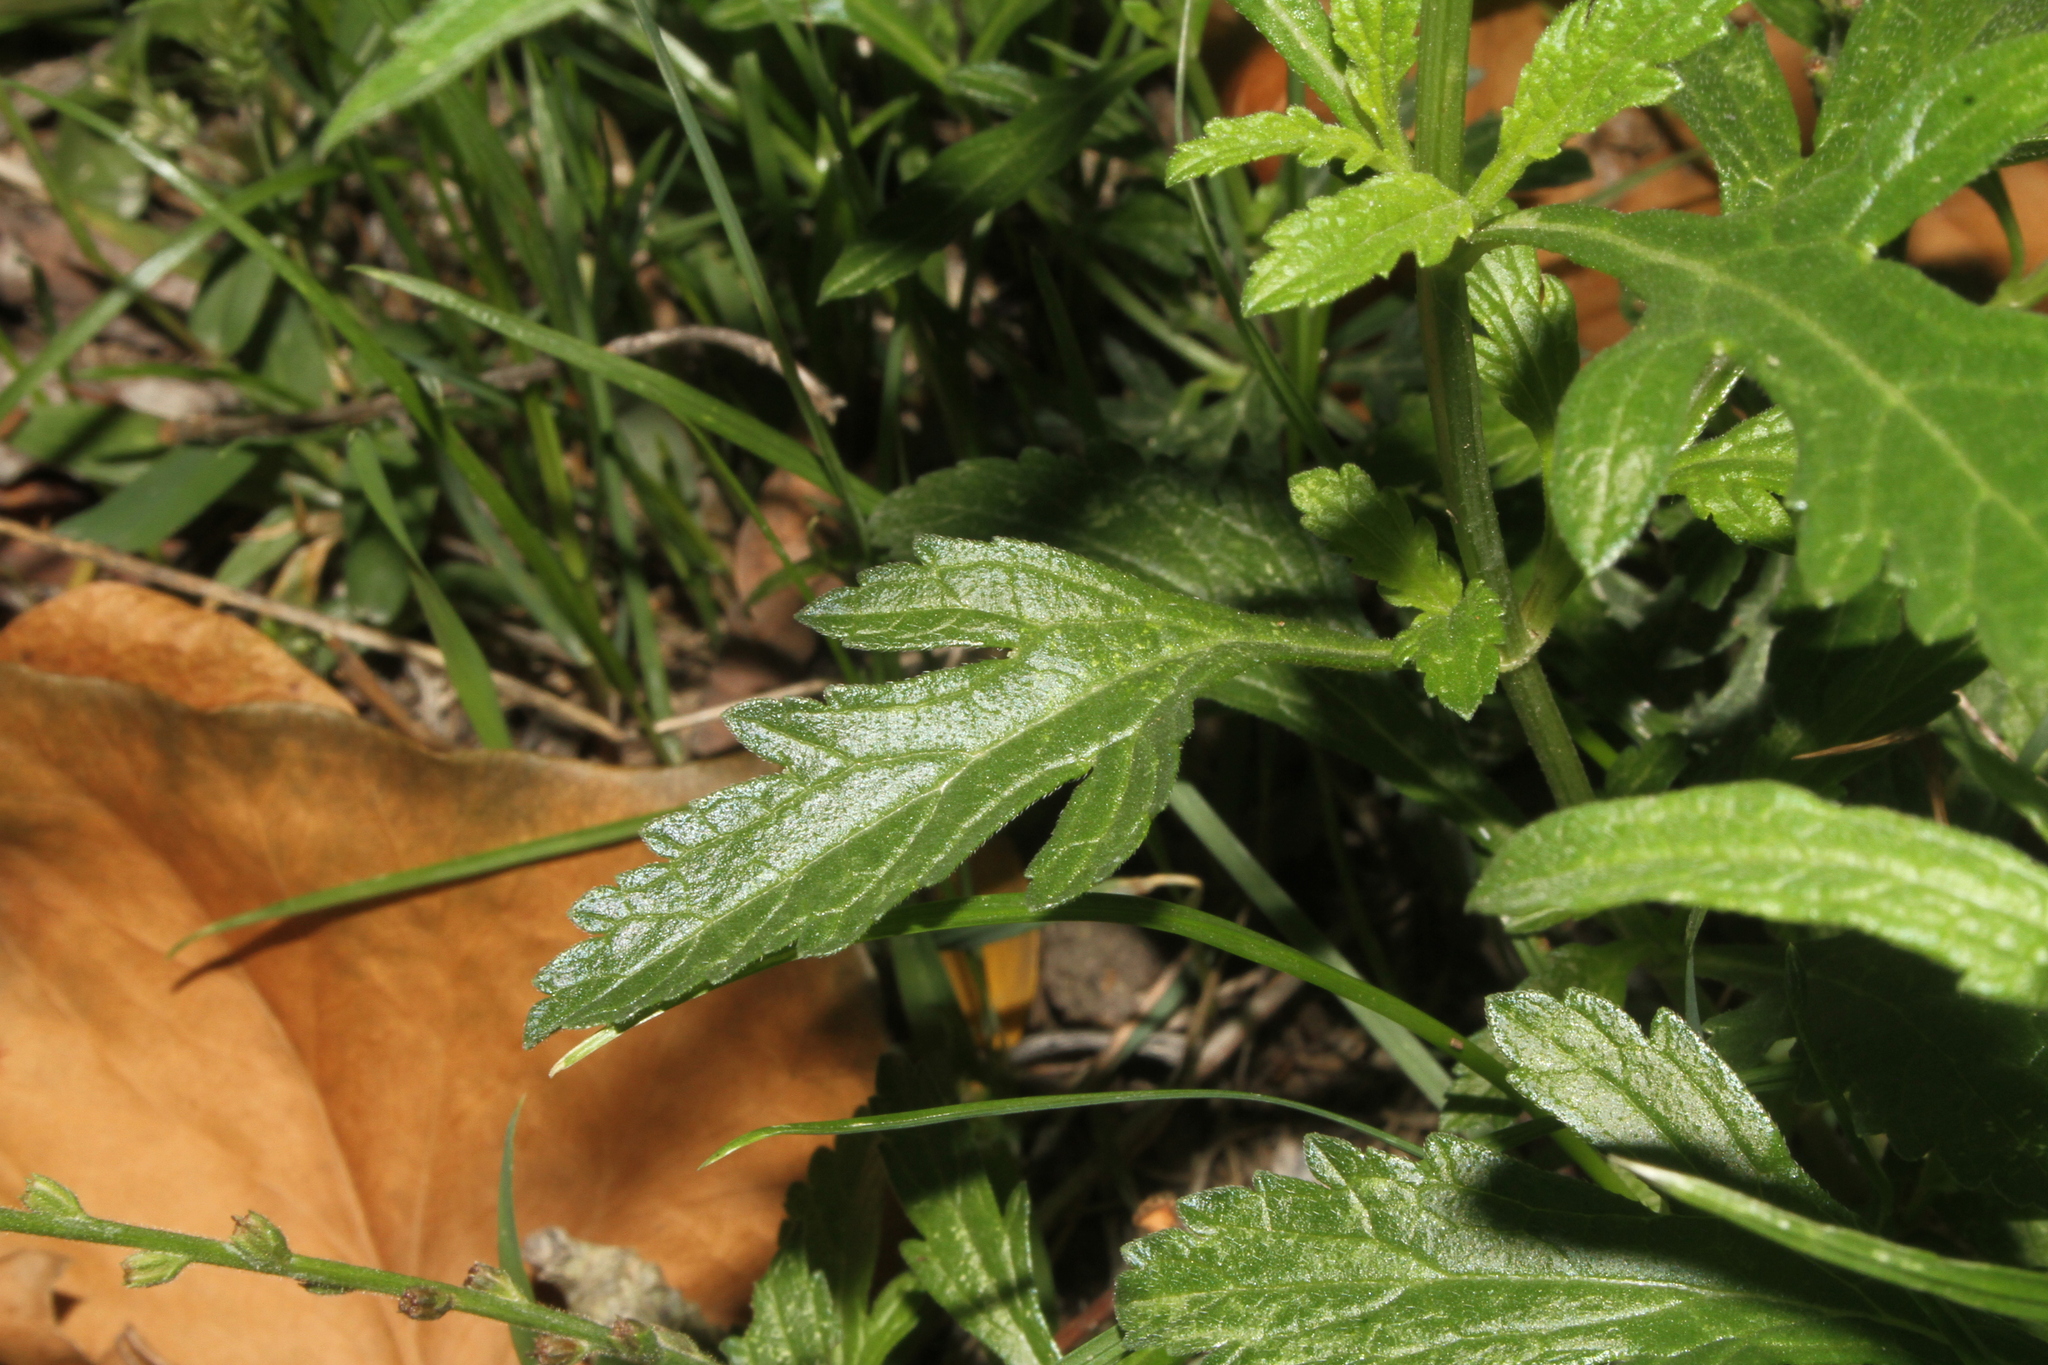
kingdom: Plantae
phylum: Tracheophyta
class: Magnoliopsida
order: Lamiales
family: Verbenaceae
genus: Verbena
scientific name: Verbena officinalis
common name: Vervain
